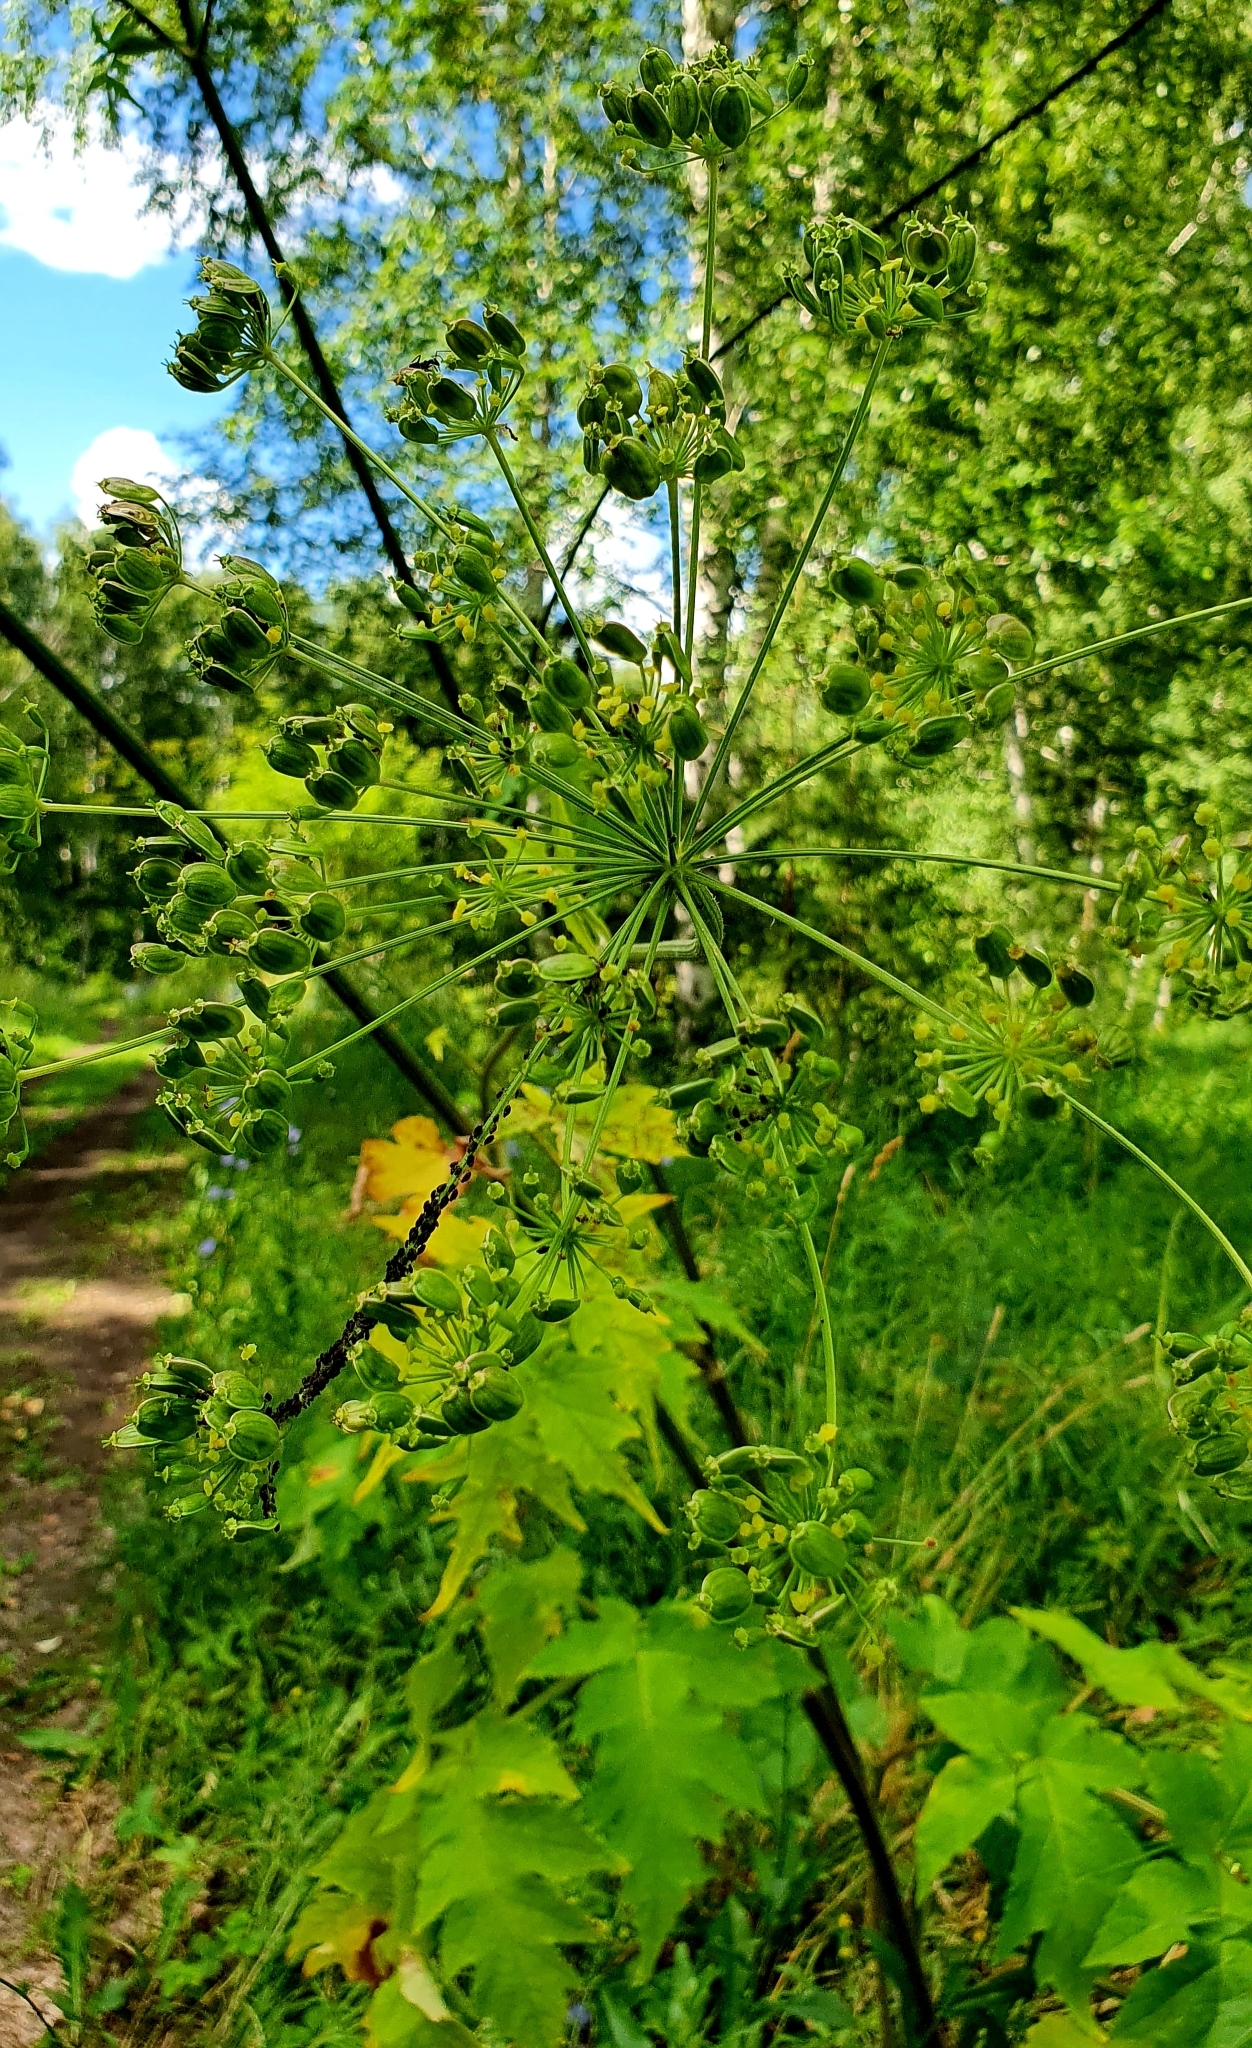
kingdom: Plantae
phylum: Tracheophyta
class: Magnoliopsida
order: Apiales
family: Apiaceae
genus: Heracleum
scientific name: Heracleum sphondylium
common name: Hogweed
